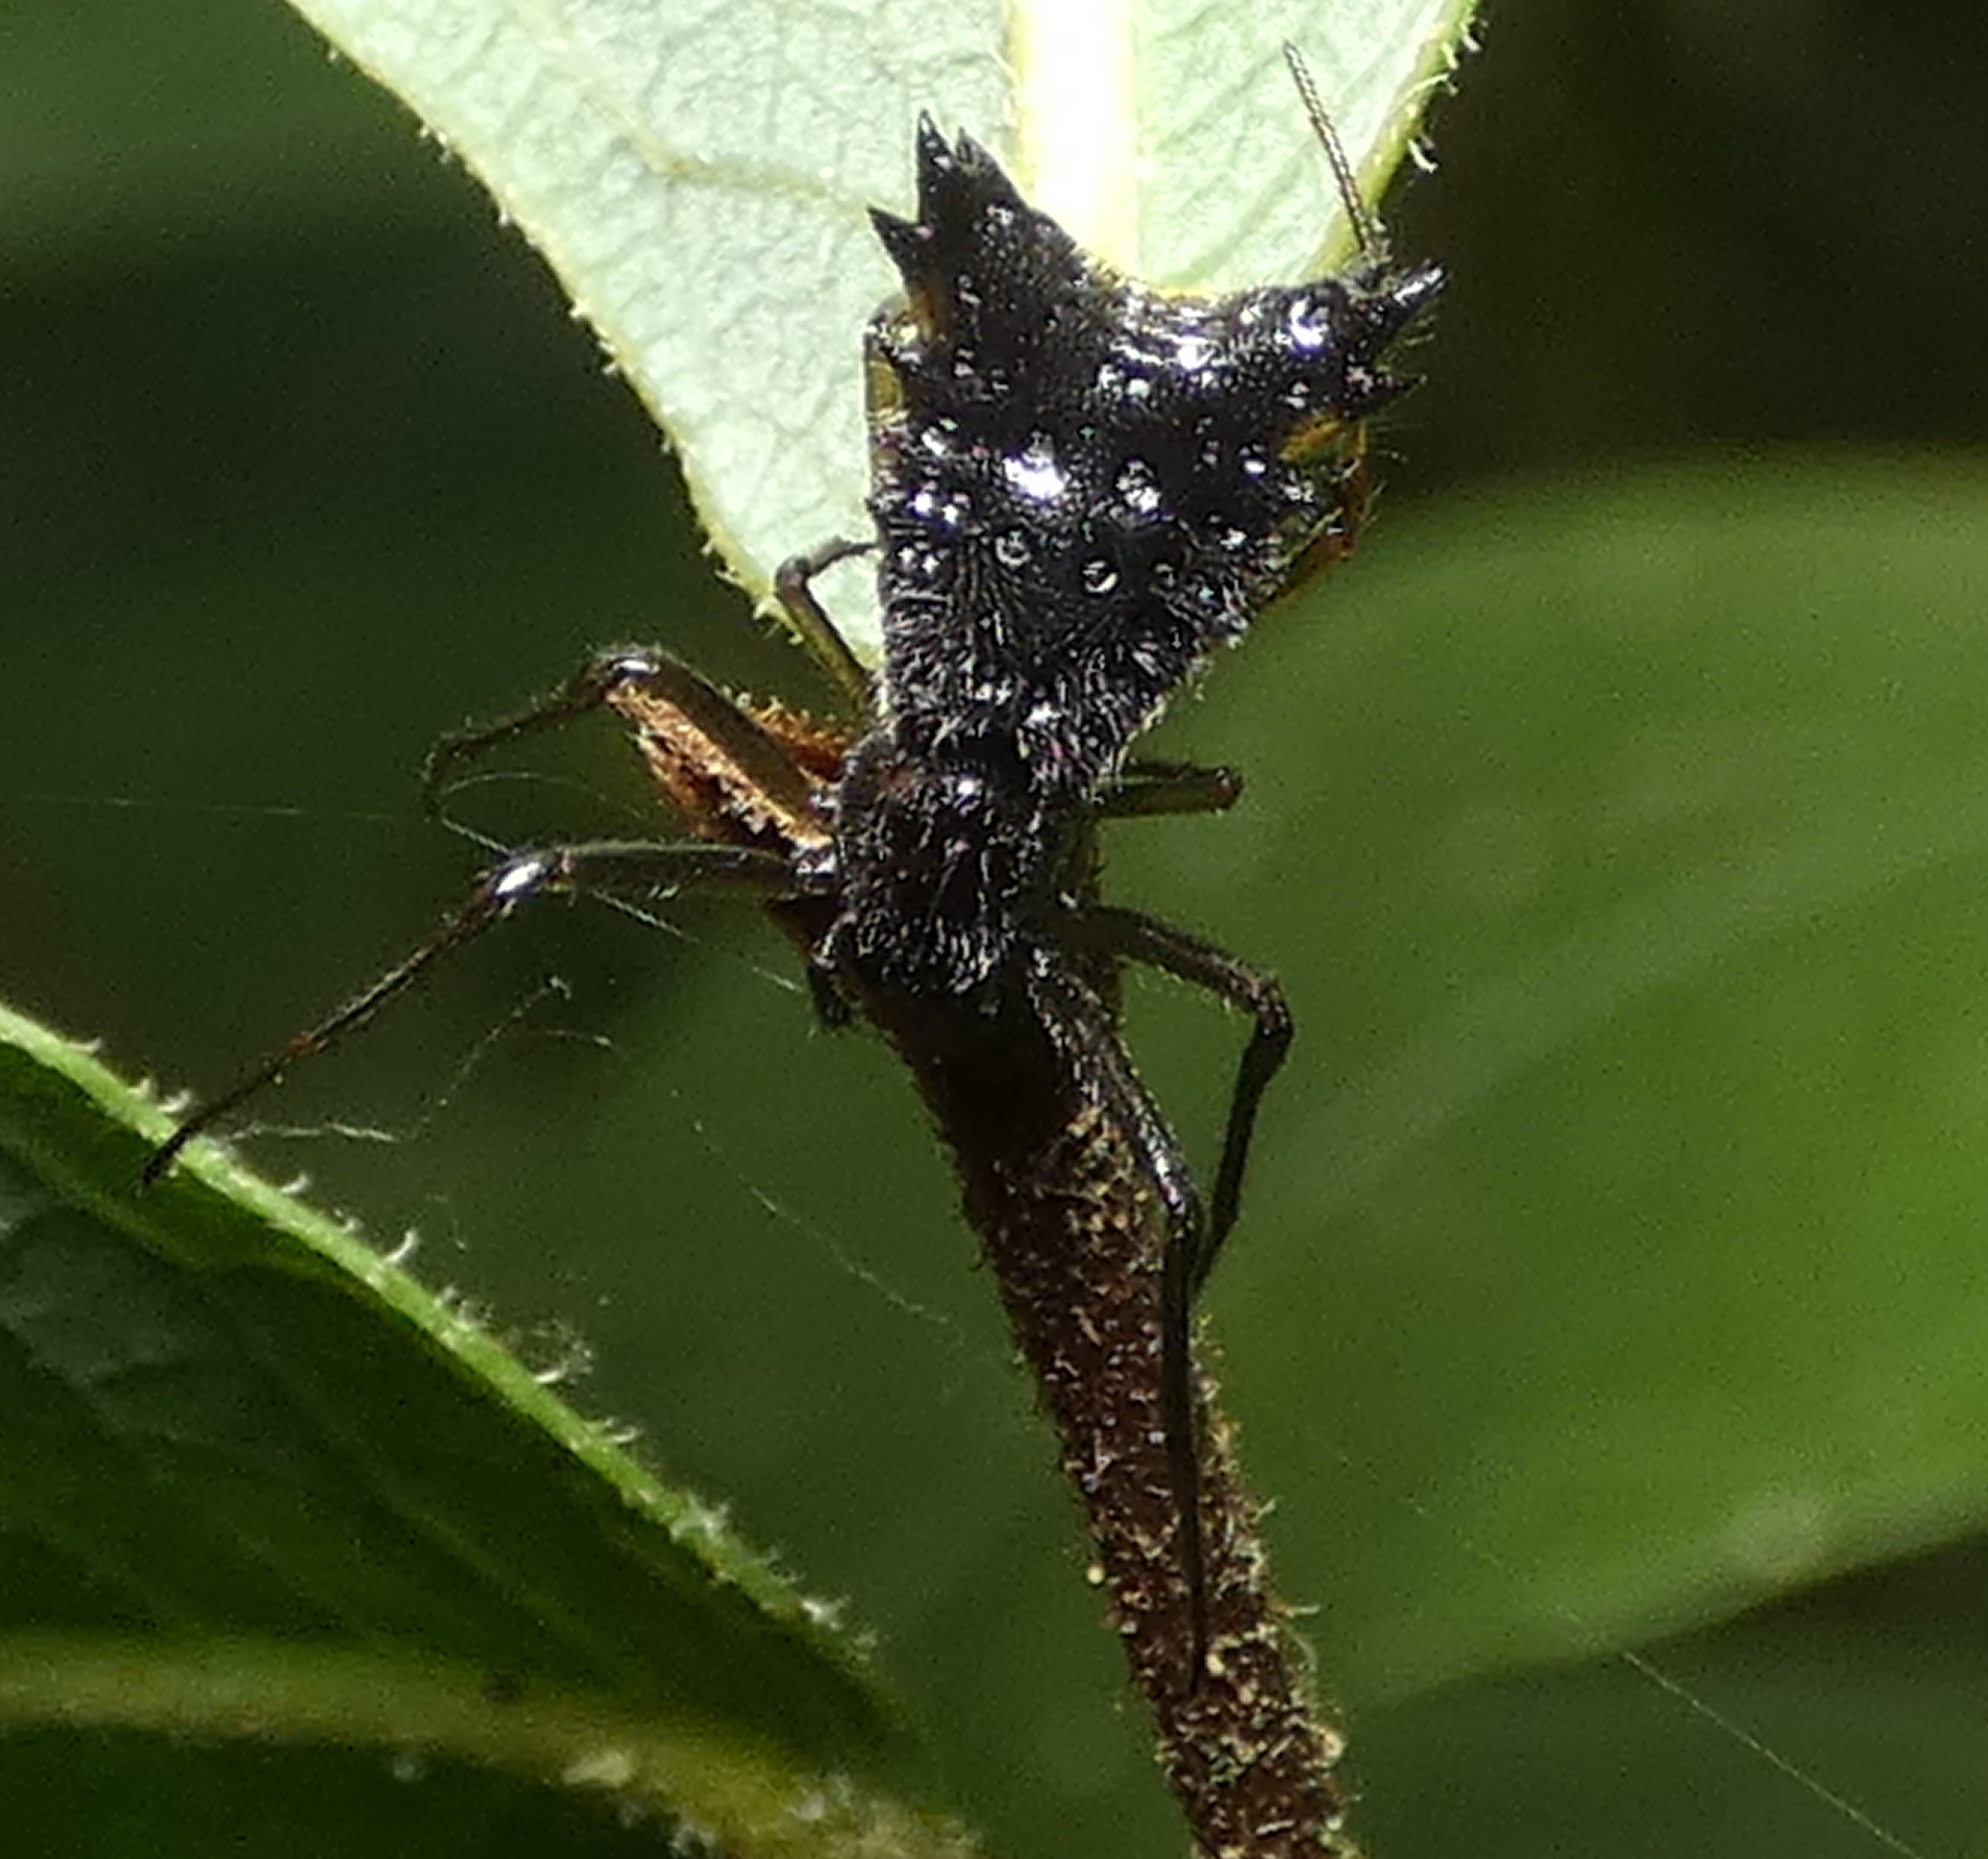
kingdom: Animalia
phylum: Arthropoda
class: Arachnida
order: Araneae
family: Araneidae
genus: Micrathena
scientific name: Micrathena triangularis
